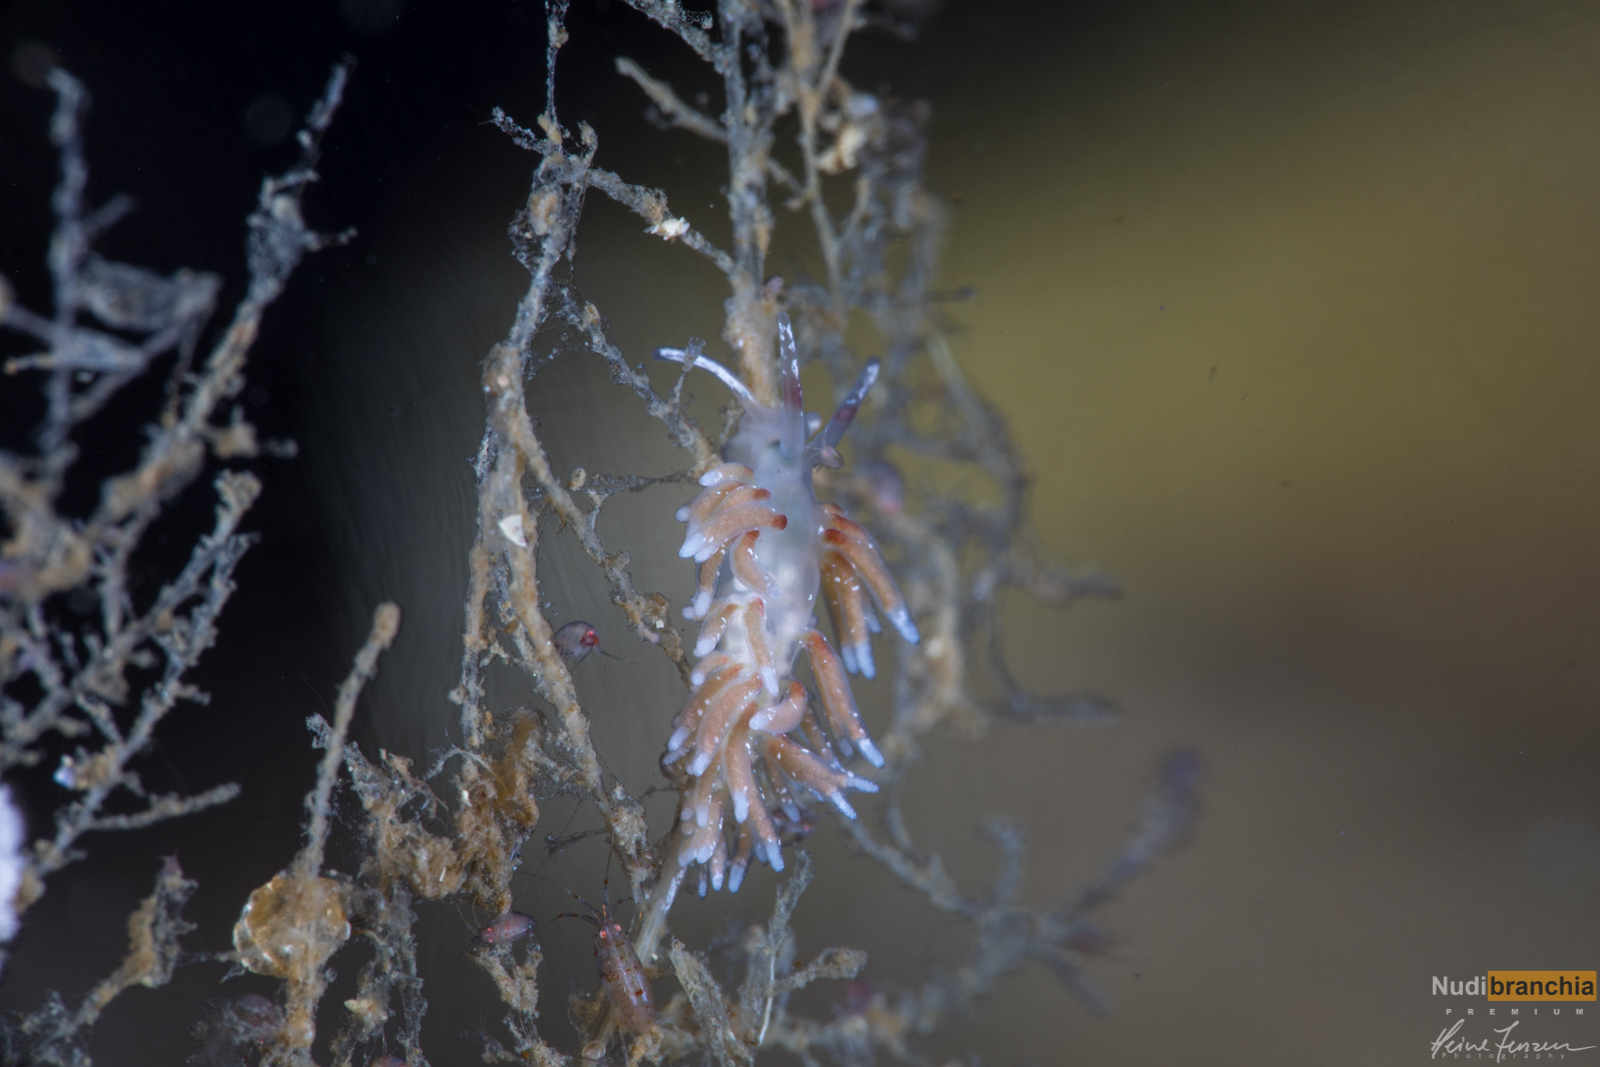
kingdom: Animalia
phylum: Mollusca
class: Gastropoda
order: Nudibranchia
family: Trinchesiidae
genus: Rubramoena
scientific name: Rubramoena rubescens
